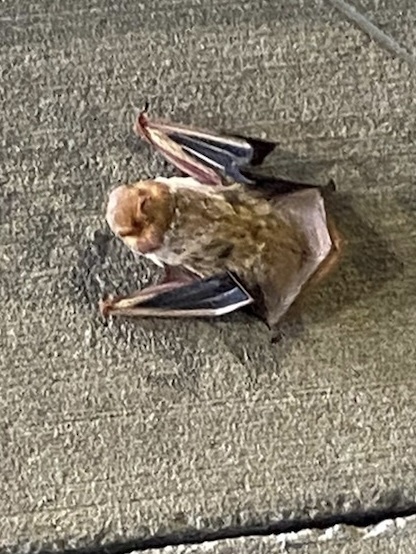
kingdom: Animalia
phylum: Chordata
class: Mammalia
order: Chiroptera
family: Vespertilionidae
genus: Lasiurus
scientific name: Lasiurus borealis
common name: Eastern red bat
